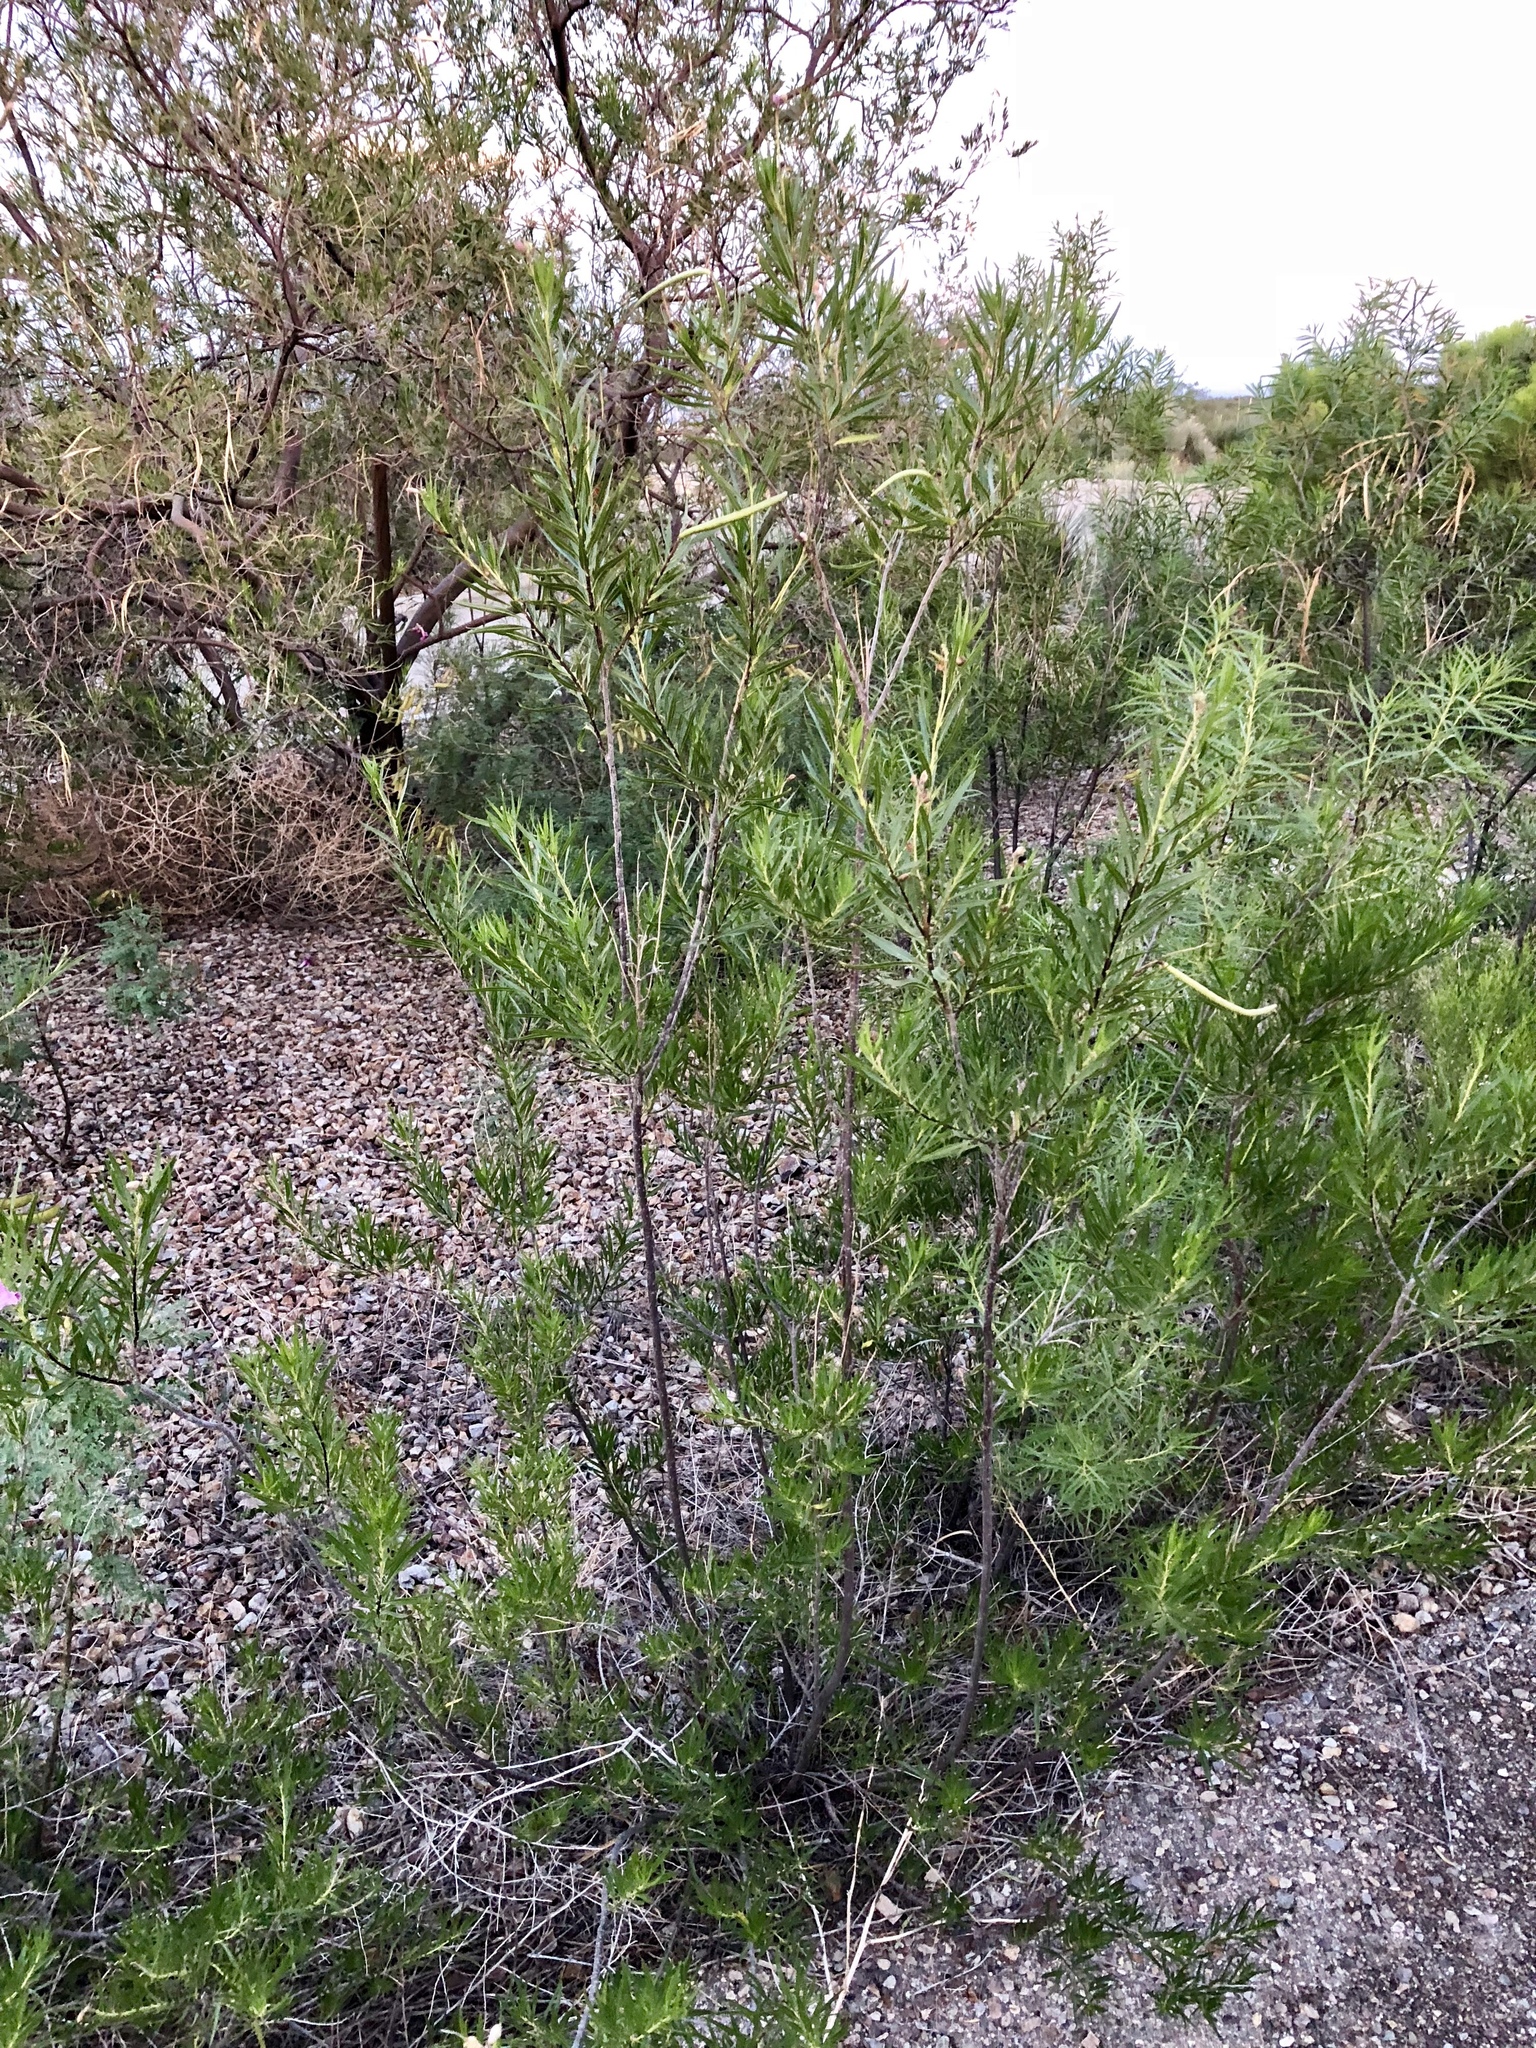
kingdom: Plantae
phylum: Tracheophyta
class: Magnoliopsida
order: Lamiales
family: Bignoniaceae
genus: Chilopsis
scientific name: Chilopsis linearis
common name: Desert-willow
